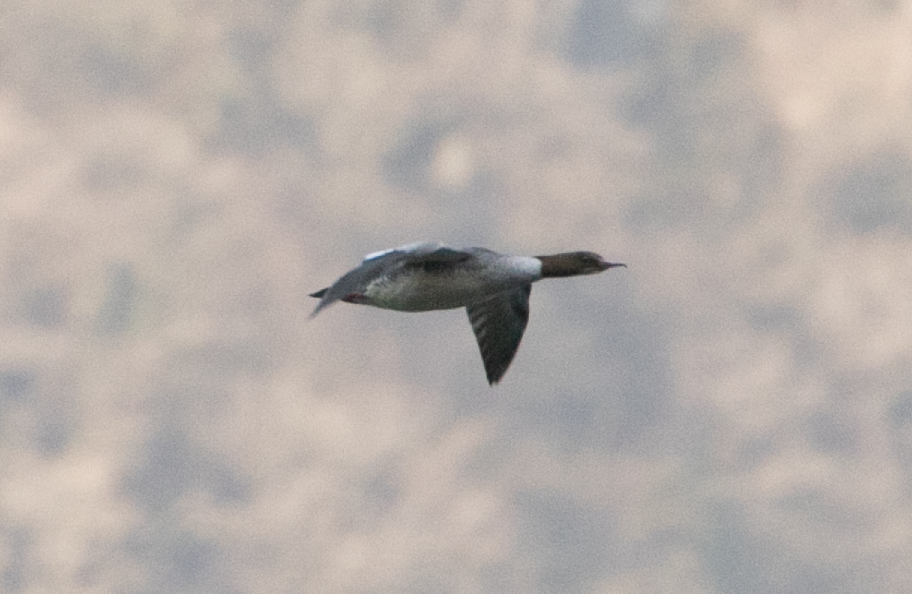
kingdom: Animalia
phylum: Chordata
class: Aves
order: Anseriformes
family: Anatidae
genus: Mergus
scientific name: Mergus merganser
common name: Common merganser
